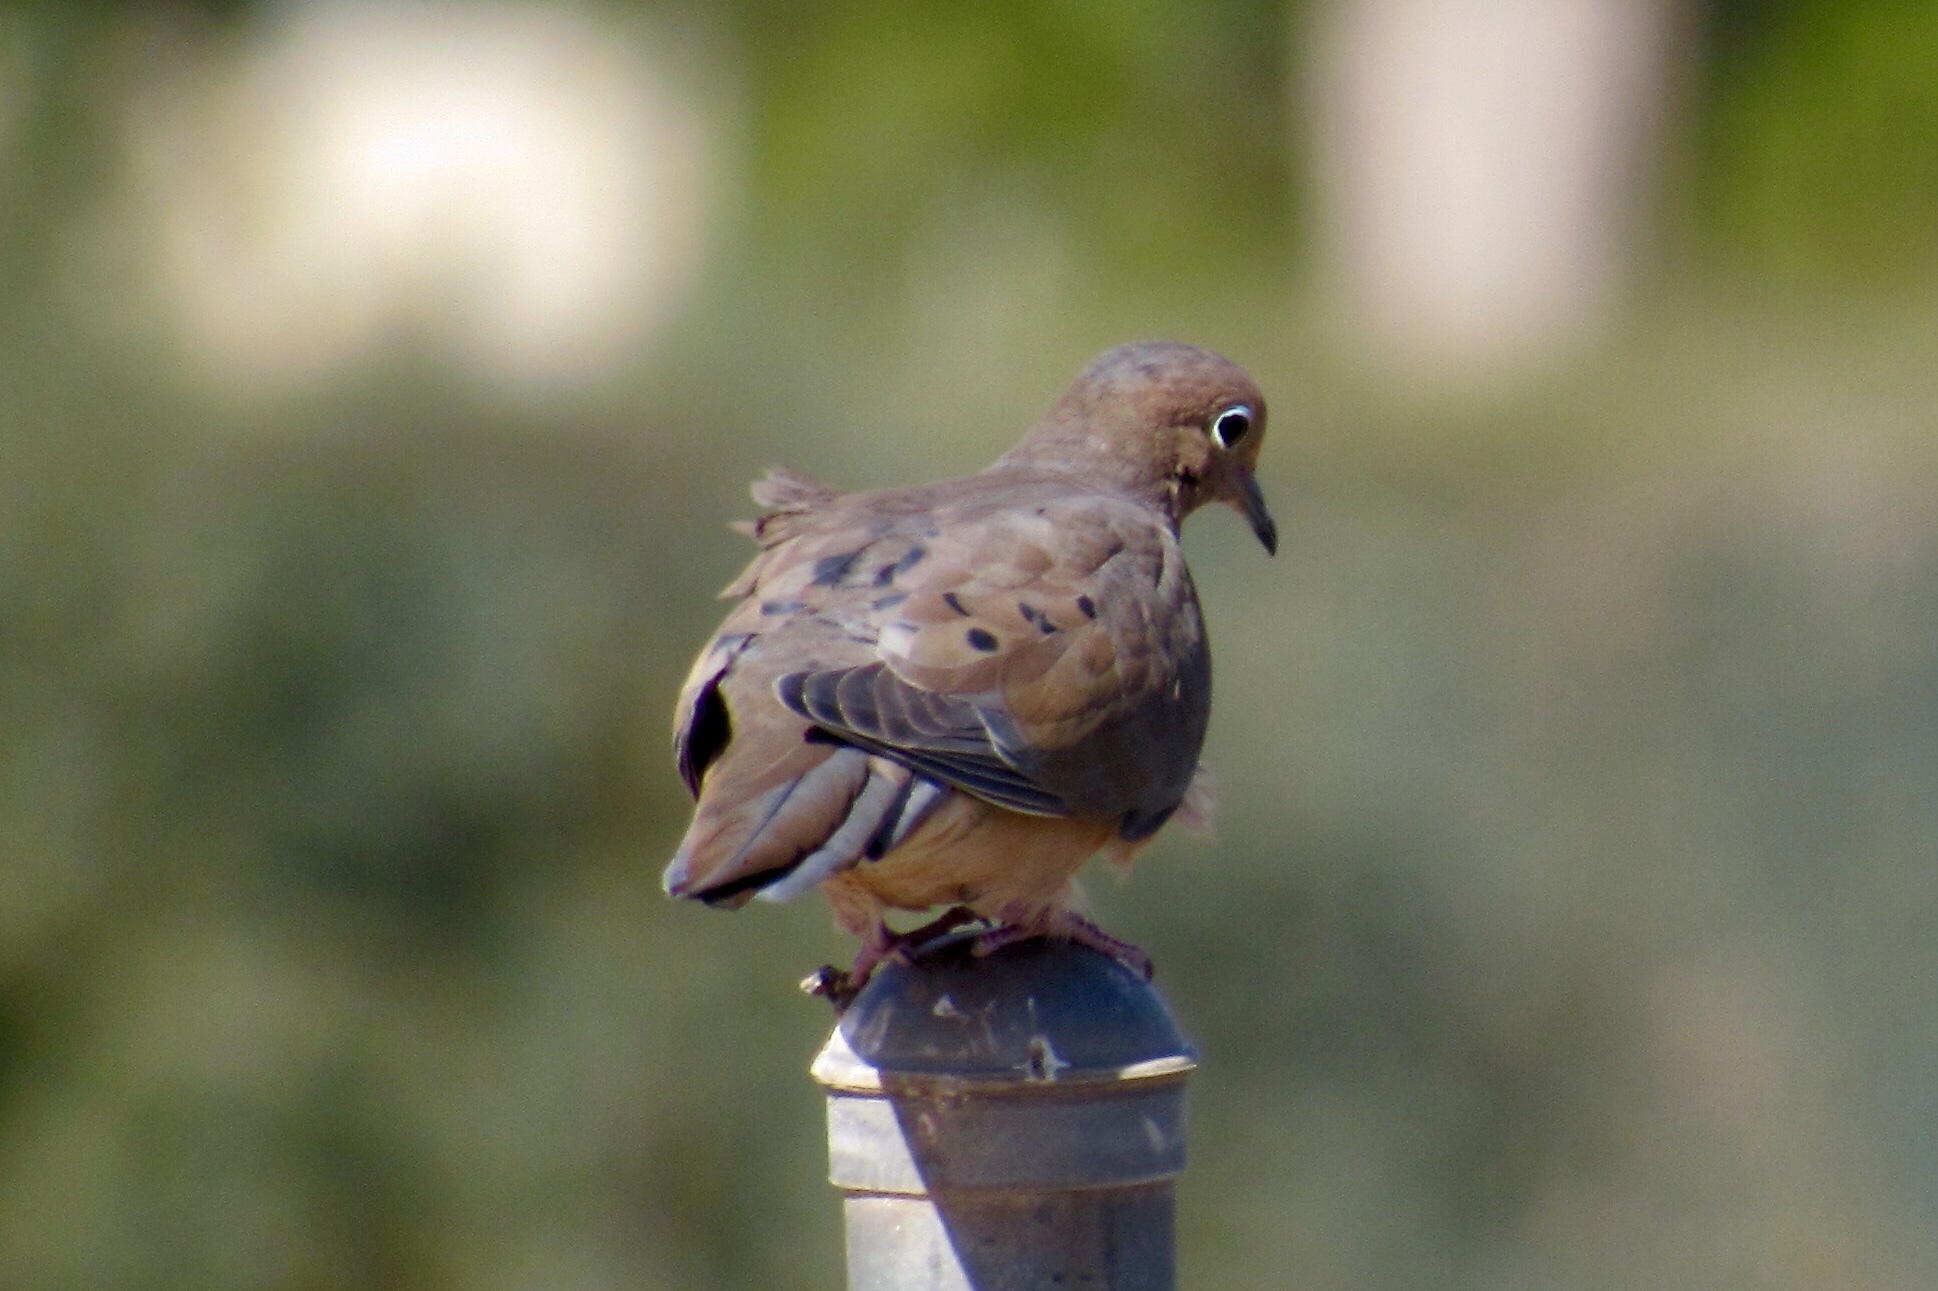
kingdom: Animalia
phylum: Chordata
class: Aves
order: Columbiformes
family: Columbidae
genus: Zenaida
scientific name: Zenaida macroura
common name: Mourning dove
